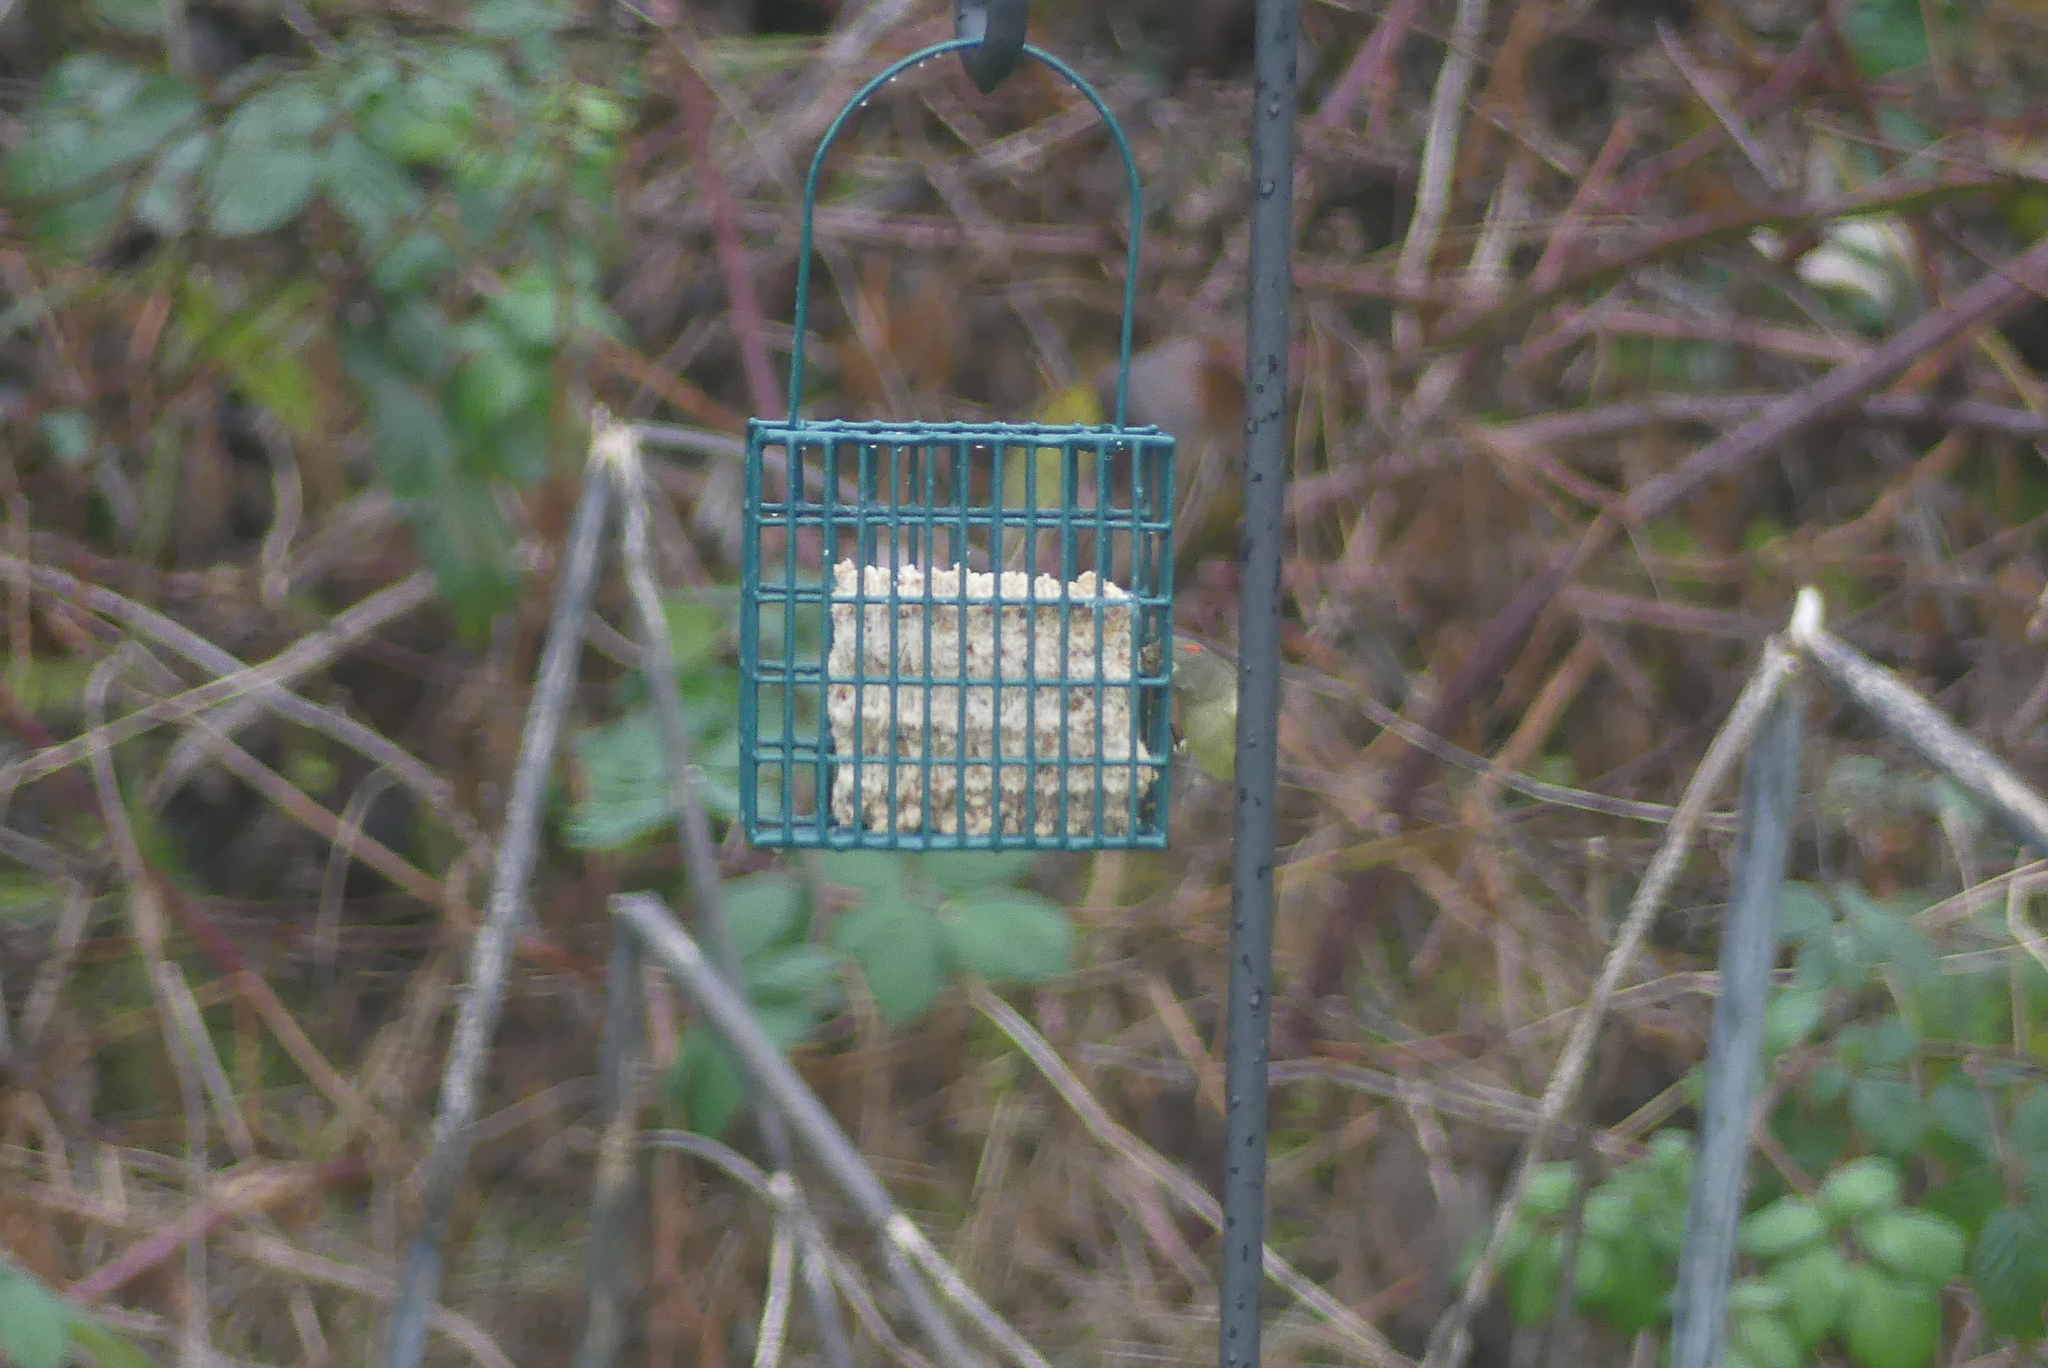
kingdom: Animalia
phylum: Chordata
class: Aves
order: Passeriformes
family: Regulidae
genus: Regulus
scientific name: Regulus calendula
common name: Ruby-crowned kinglet
